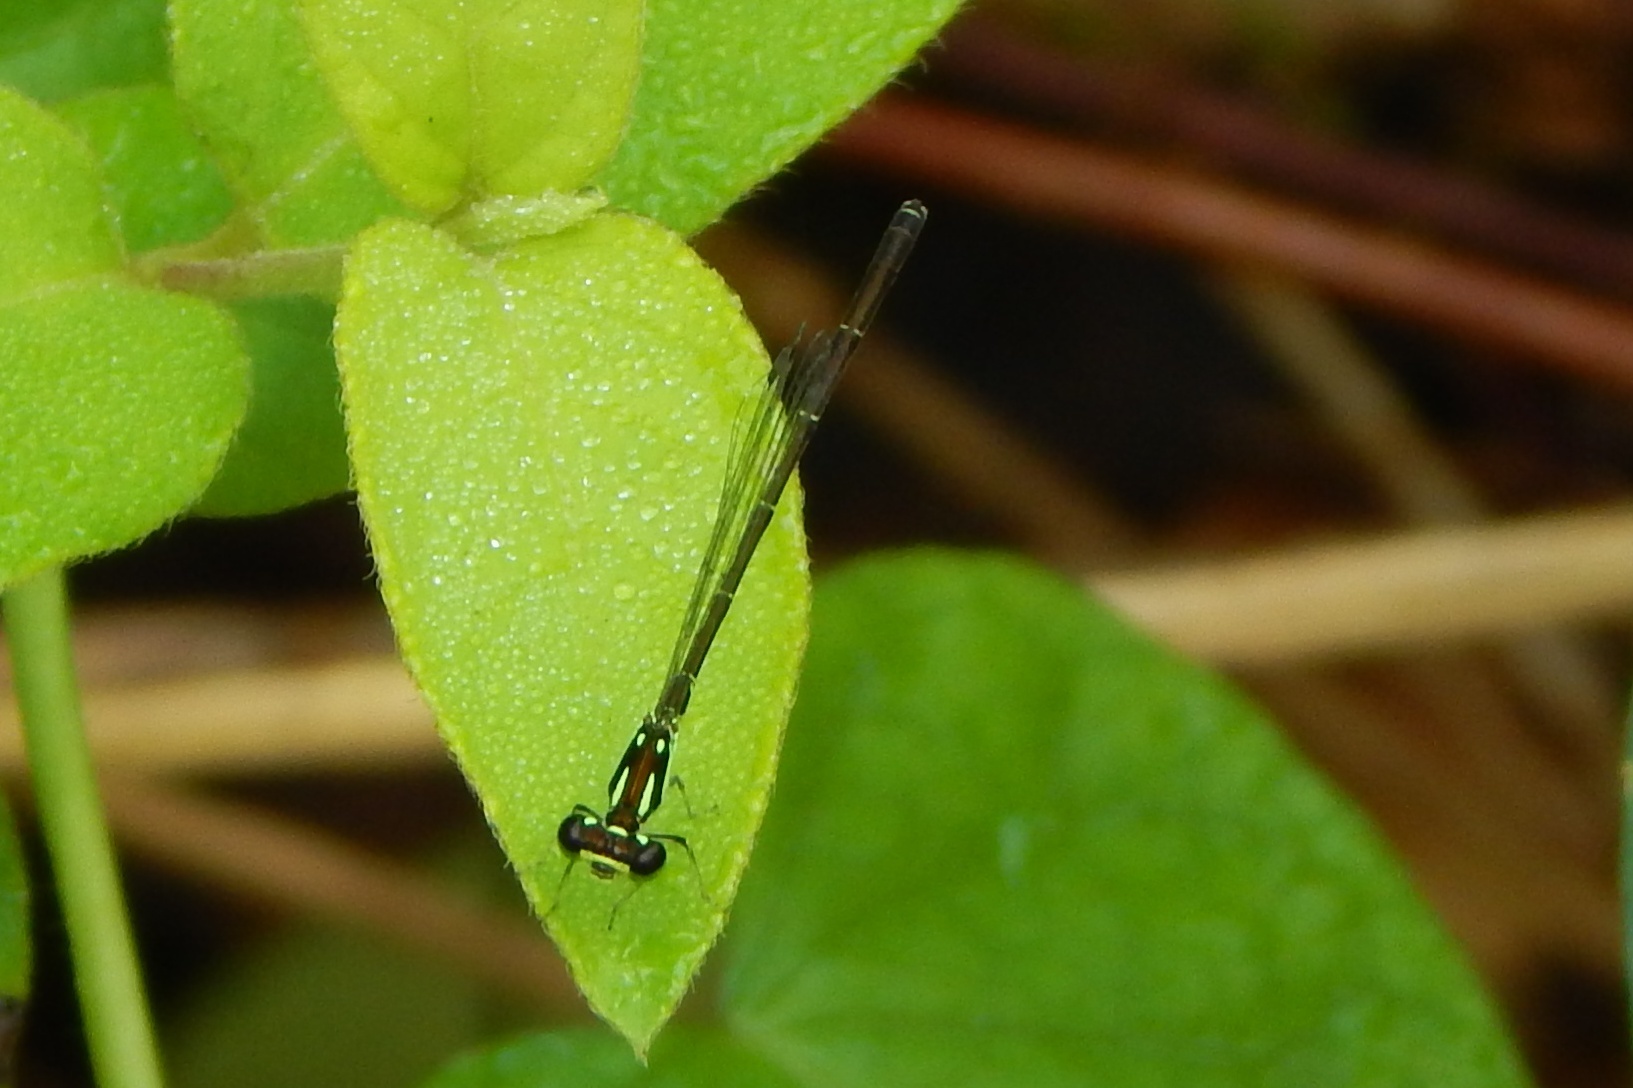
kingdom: Animalia
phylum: Arthropoda
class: Insecta
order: Odonata
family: Coenagrionidae
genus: Ischnura
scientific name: Ischnura posita
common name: Fragile forktail
